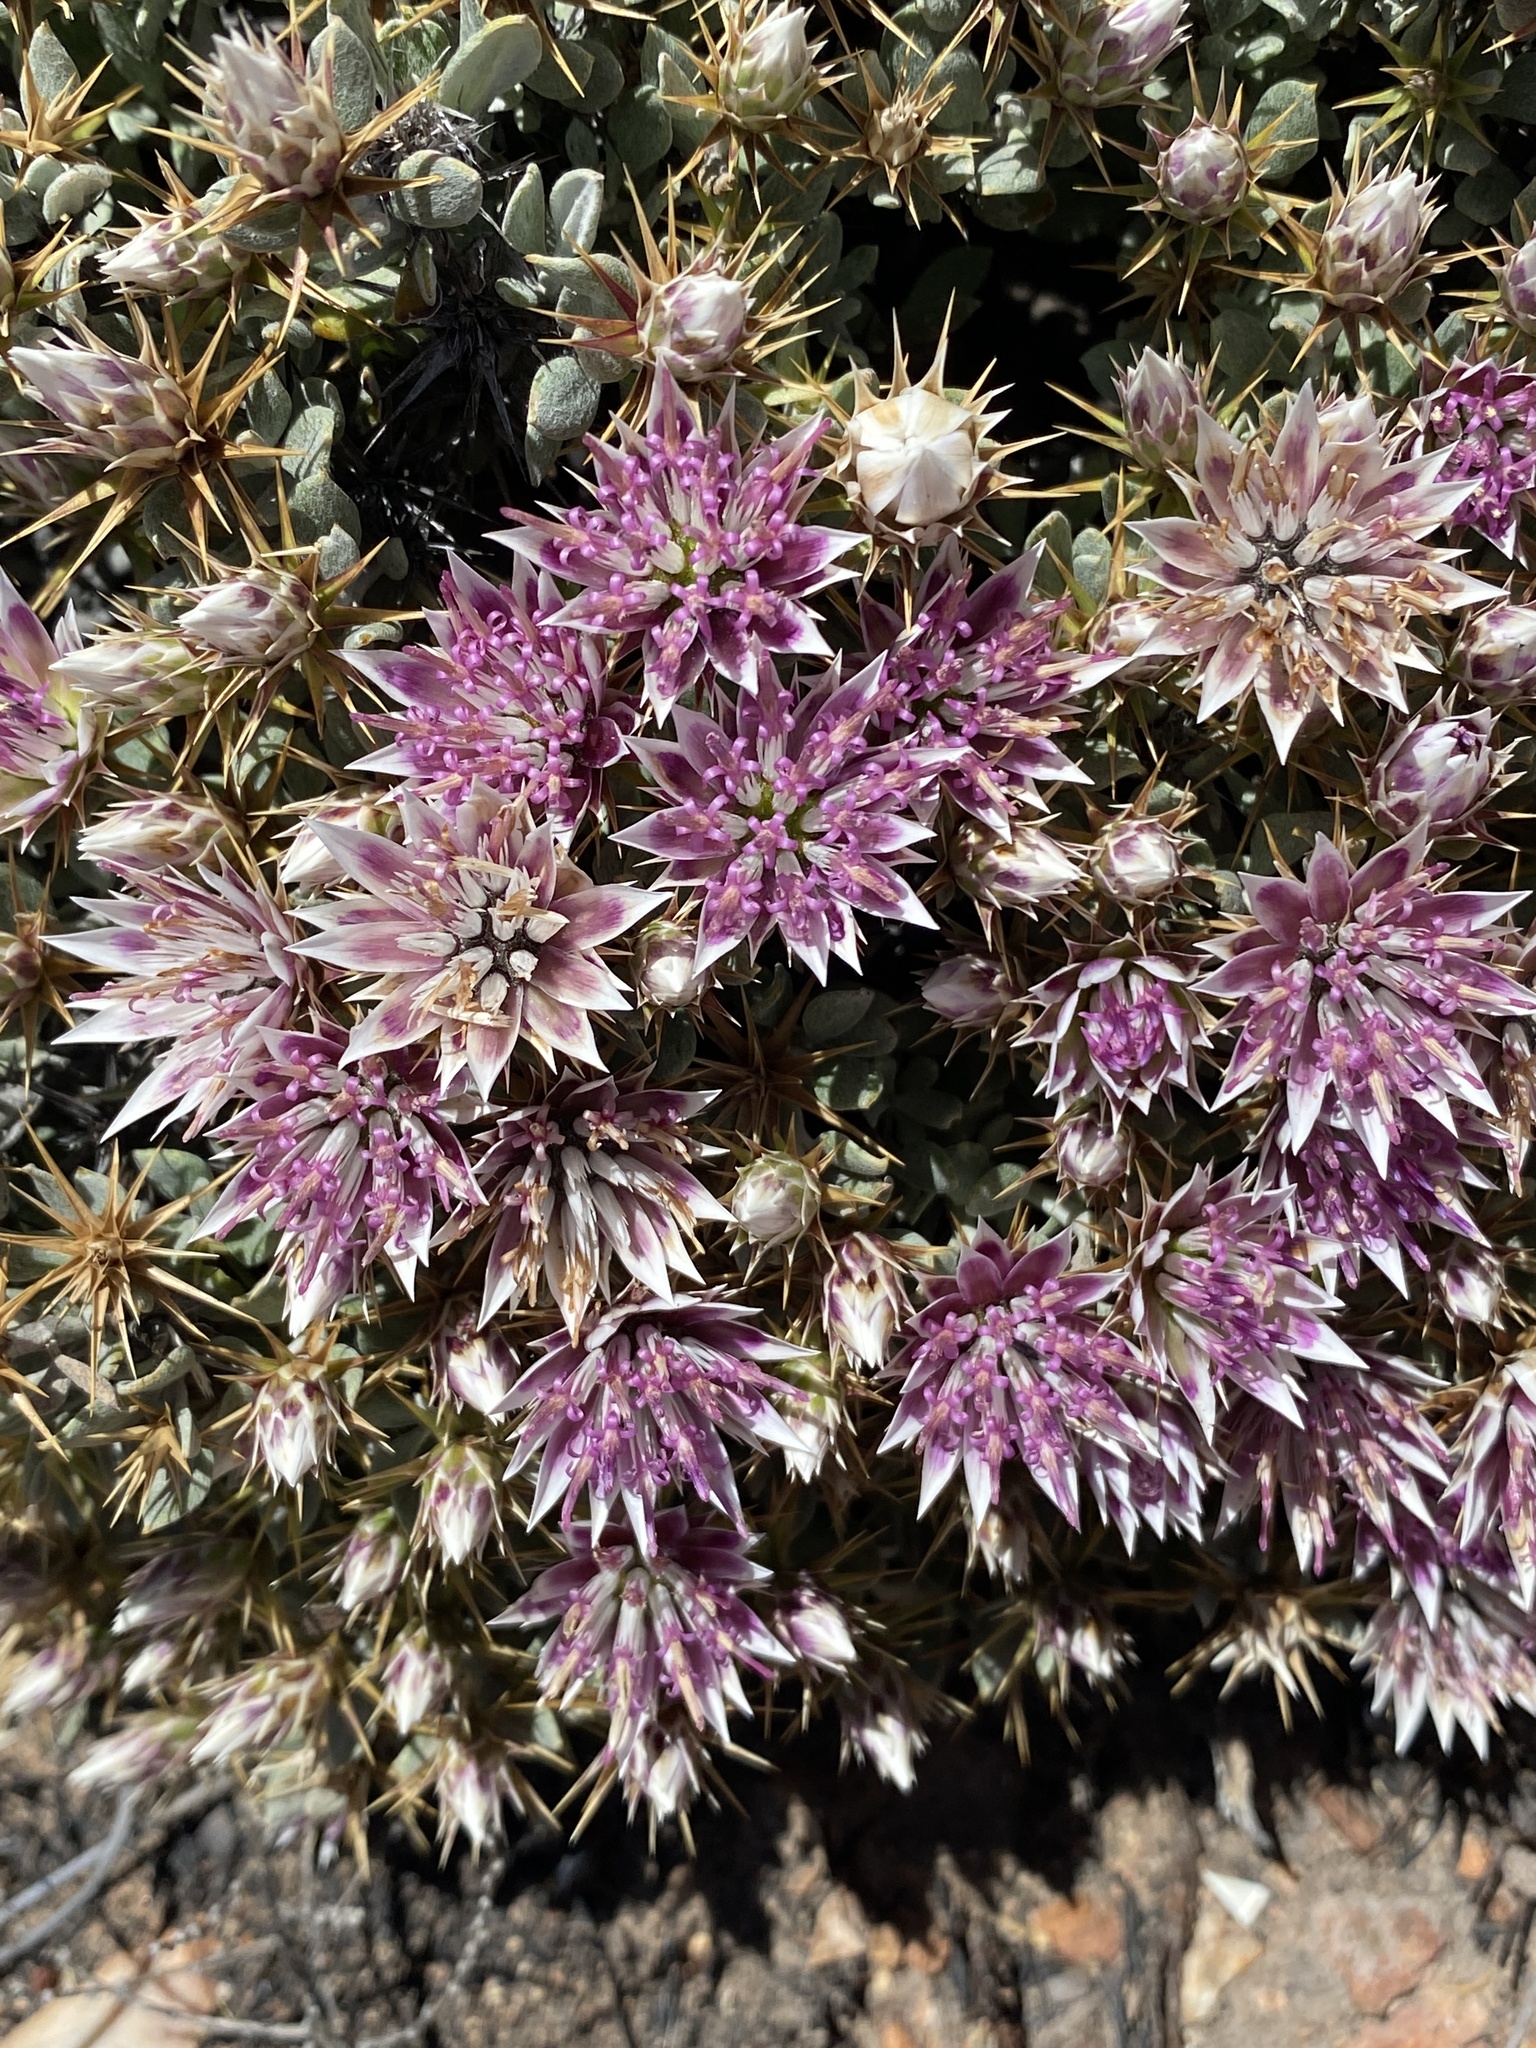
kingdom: Plantae
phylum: Tracheophyta
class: Magnoliopsida
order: Asterales
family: Asteraceae
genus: Macledium
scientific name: Macledium spinosum
